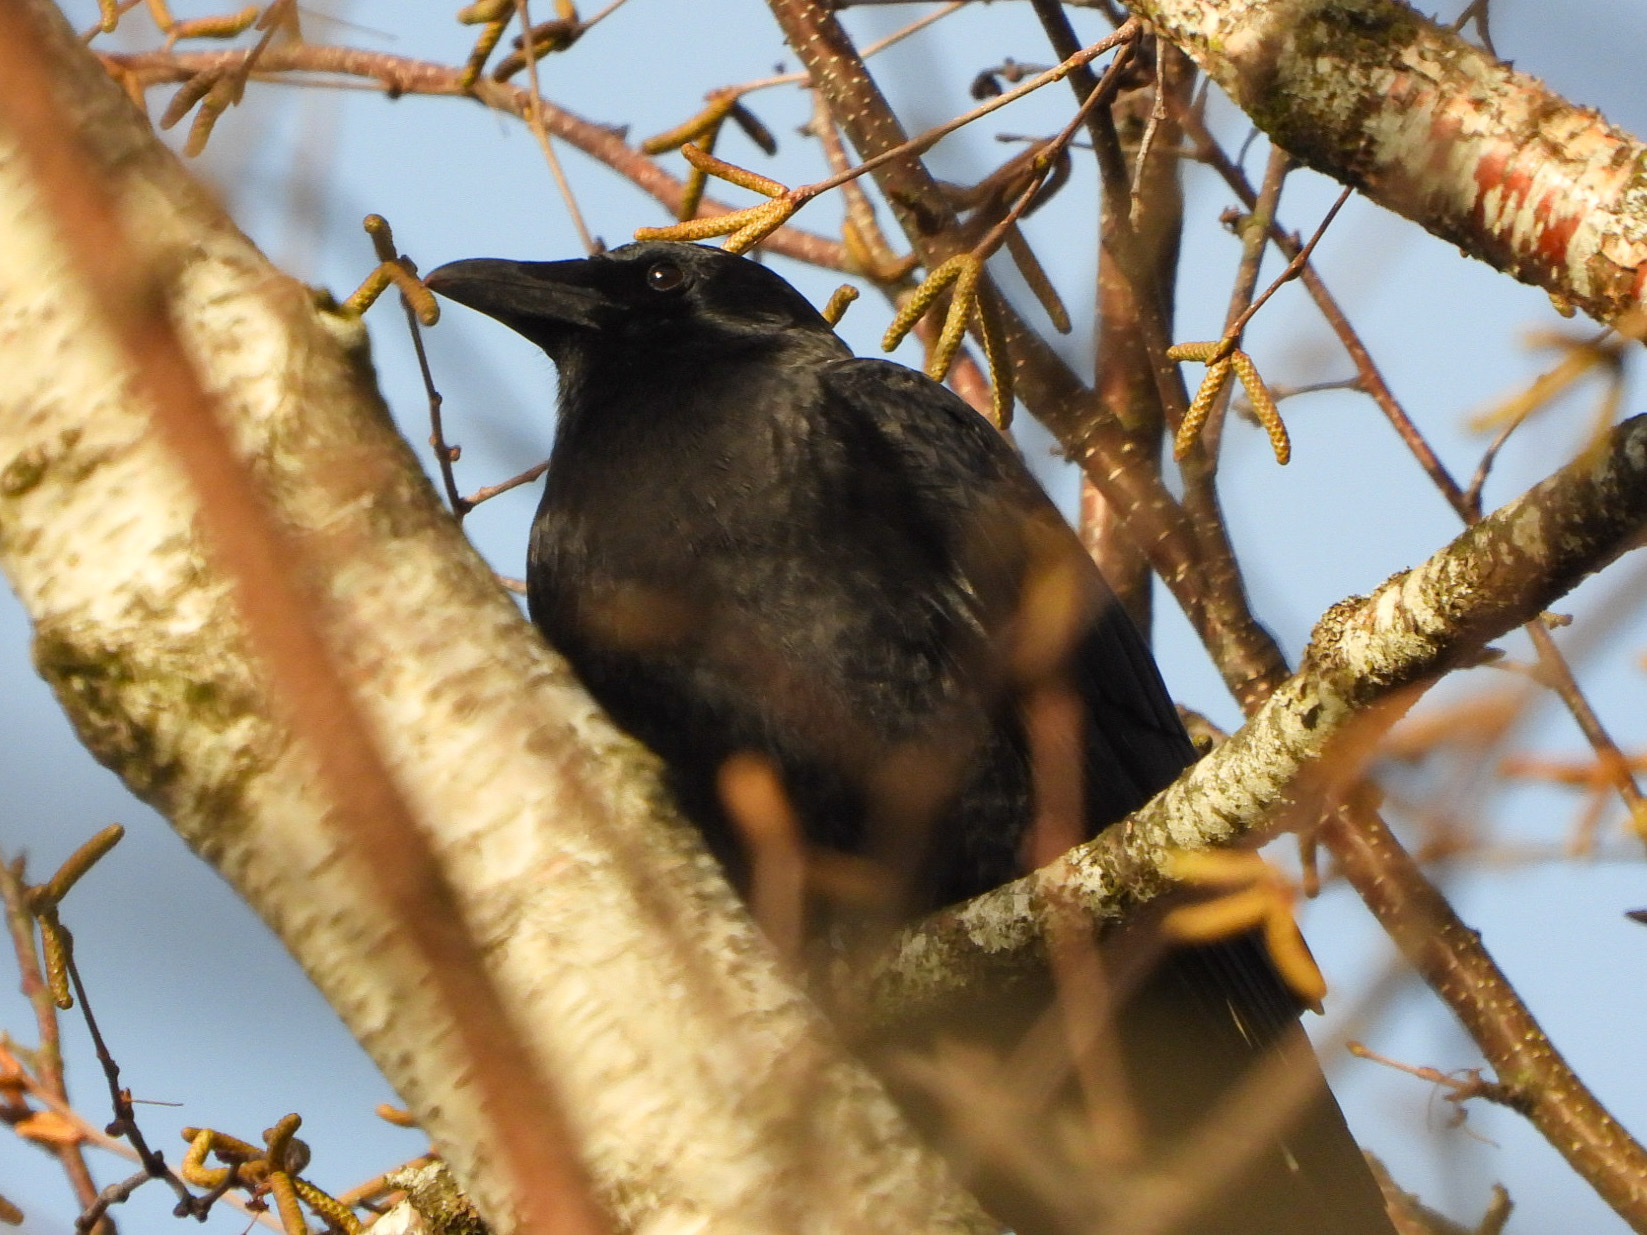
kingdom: Animalia
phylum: Chordata
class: Aves
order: Passeriformes
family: Corvidae
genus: Corvus
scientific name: Corvus brachyrhynchos
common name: American crow
